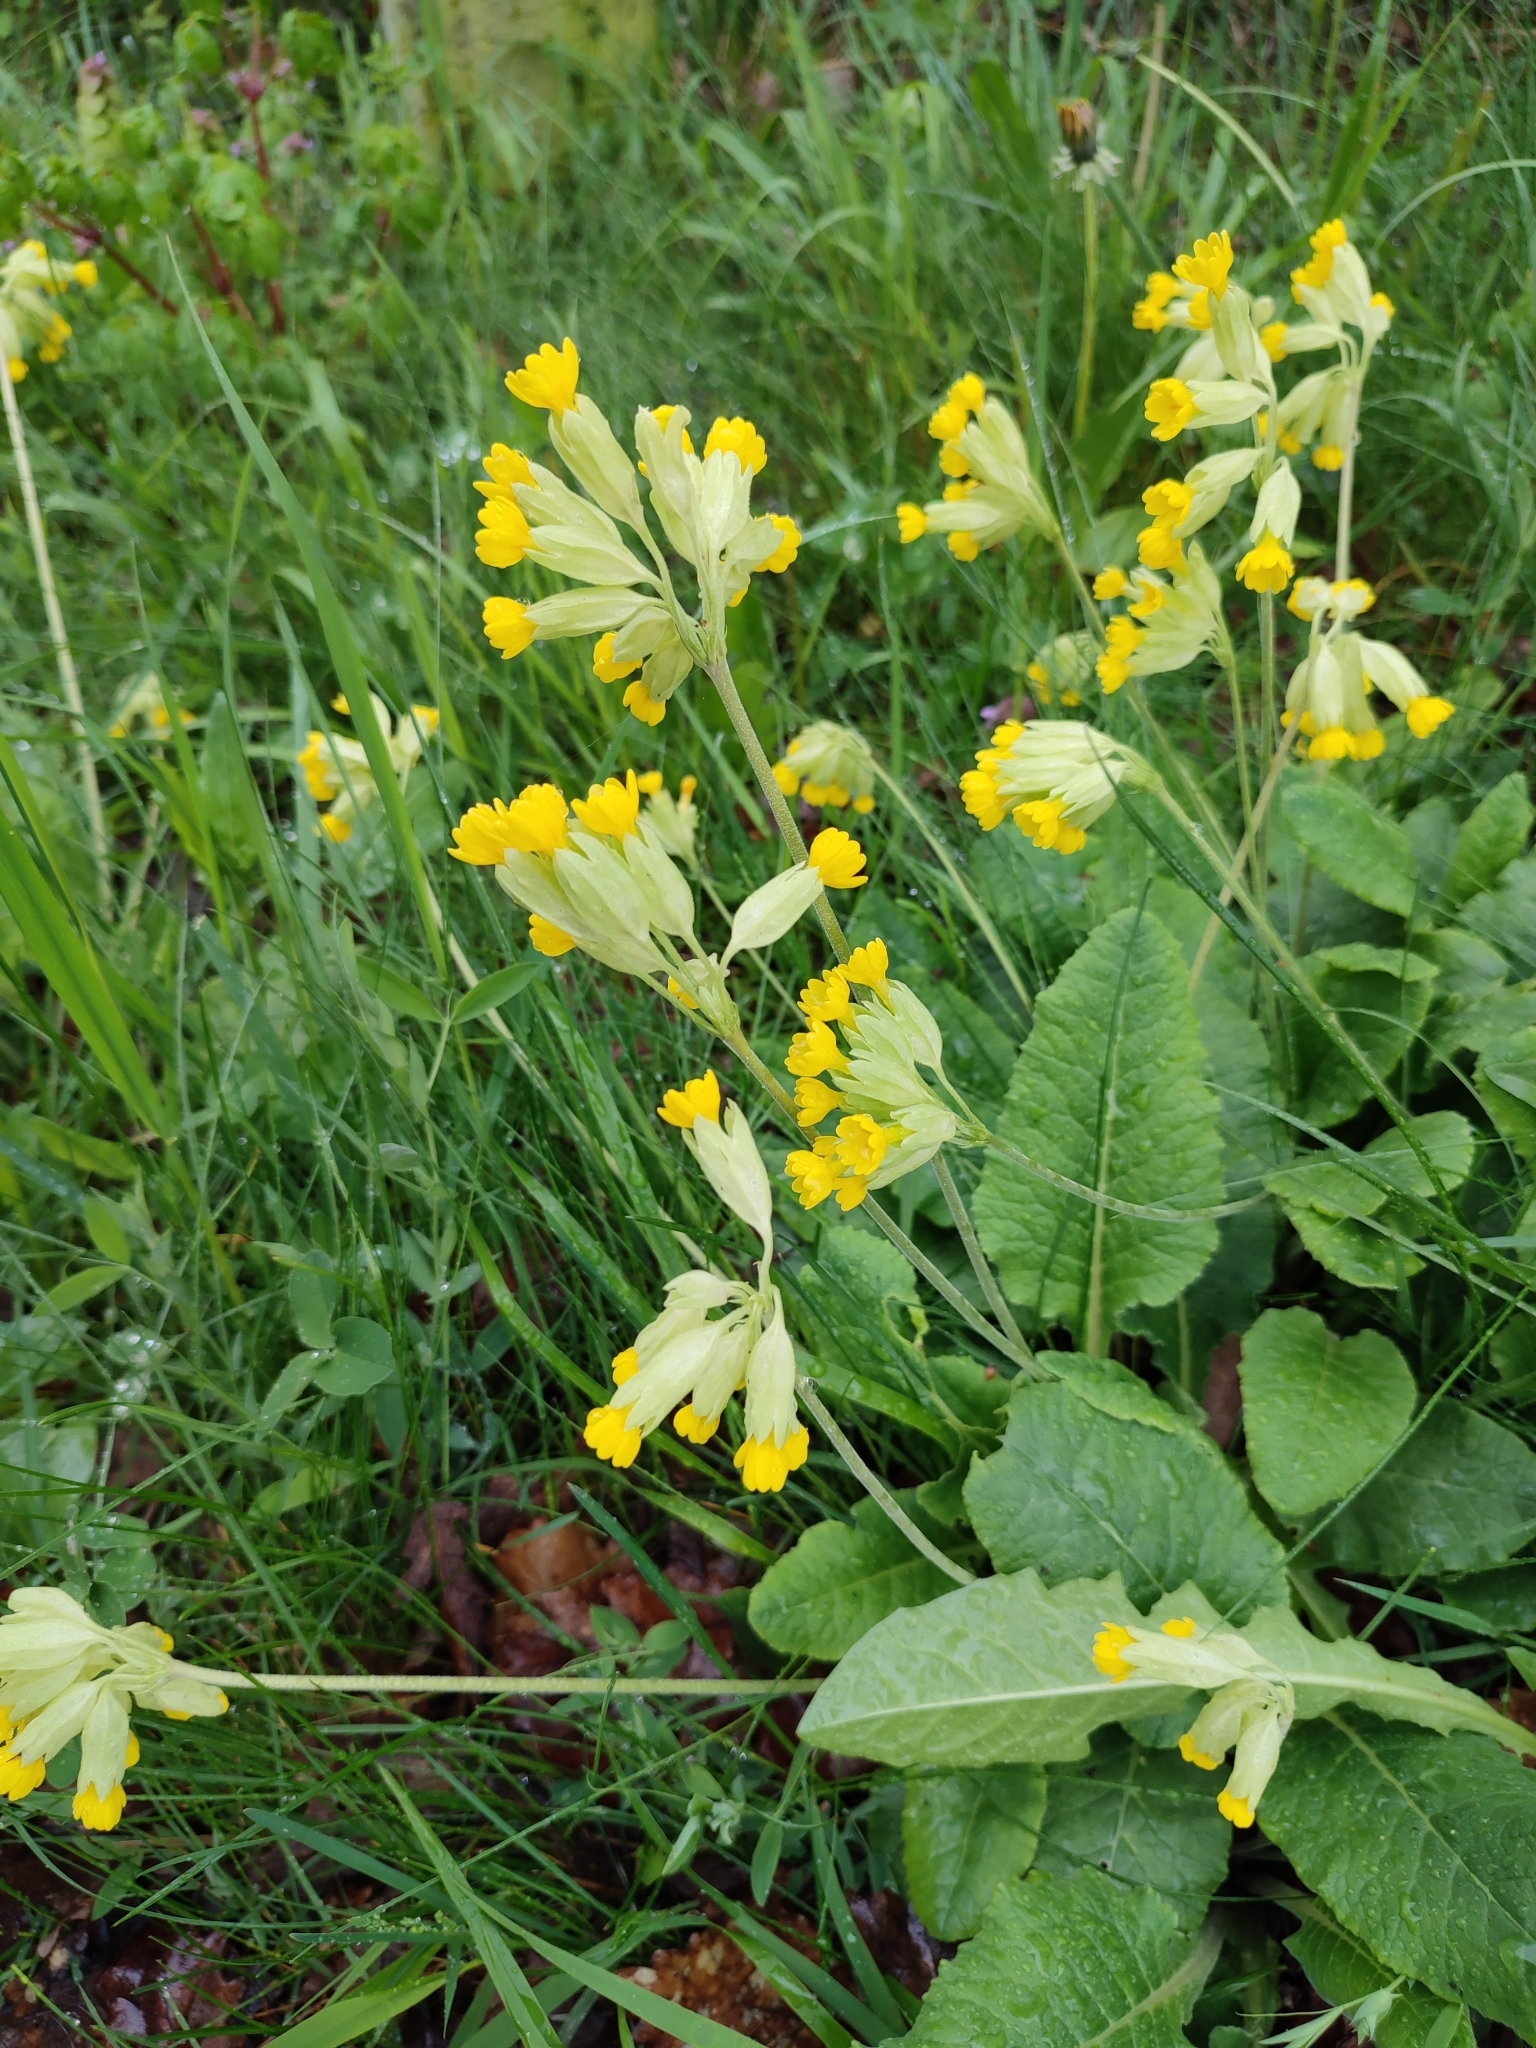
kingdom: Plantae
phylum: Tracheophyta
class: Magnoliopsida
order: Ericales
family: Primulaceae
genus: Primula
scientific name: Primula veris
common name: Cowslip
